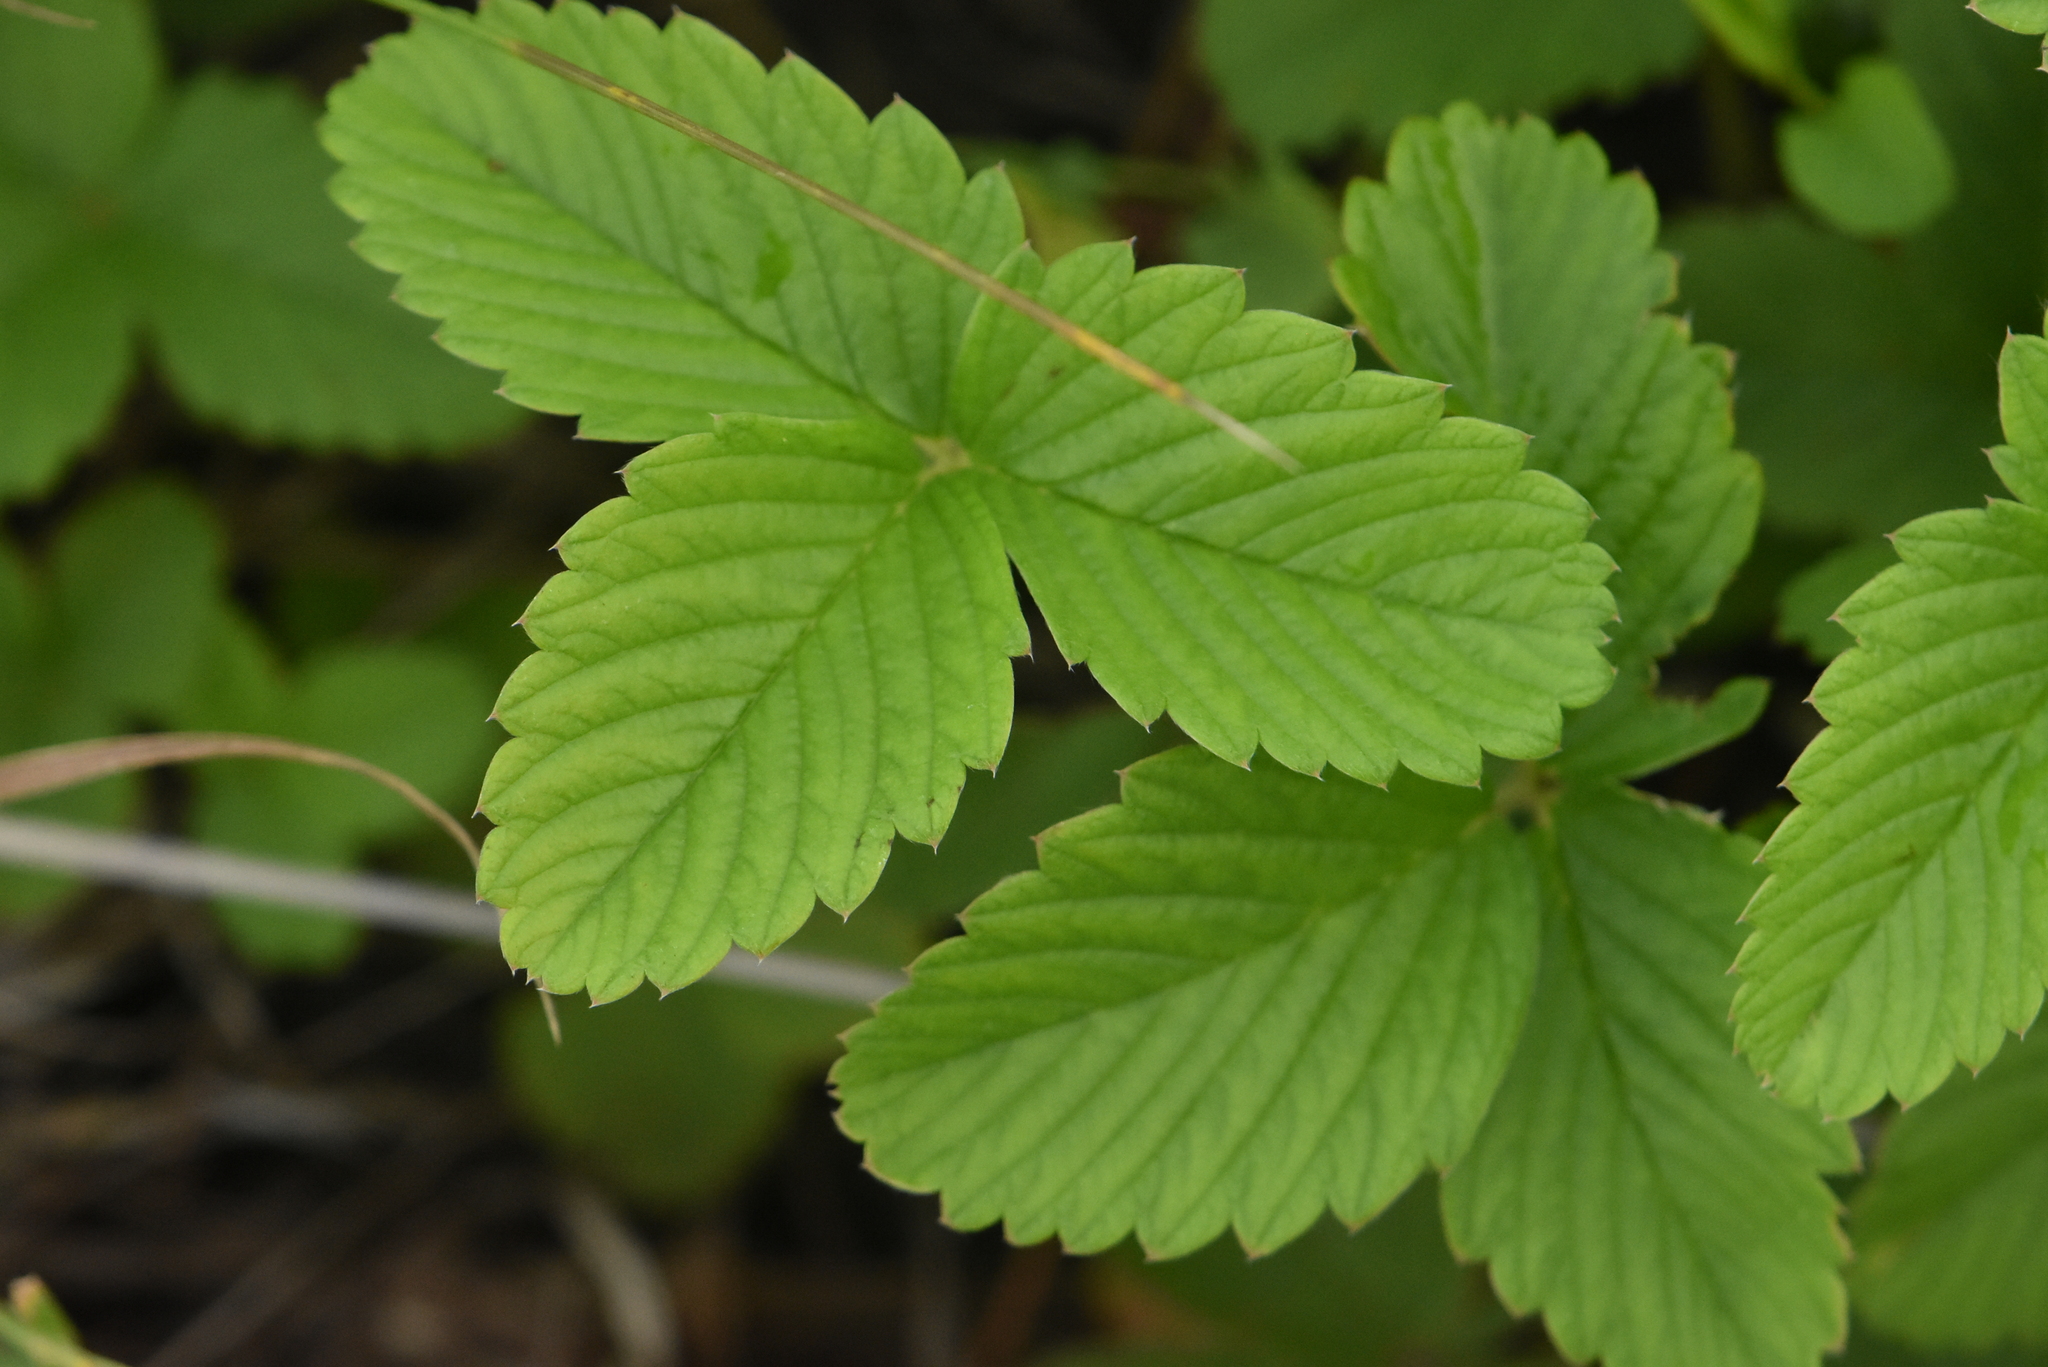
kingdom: Plantae
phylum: Tracheophyta
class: Magnoliopsida
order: Rosales
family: Rosaceae
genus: Fragaria
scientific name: Fragaria viridis
